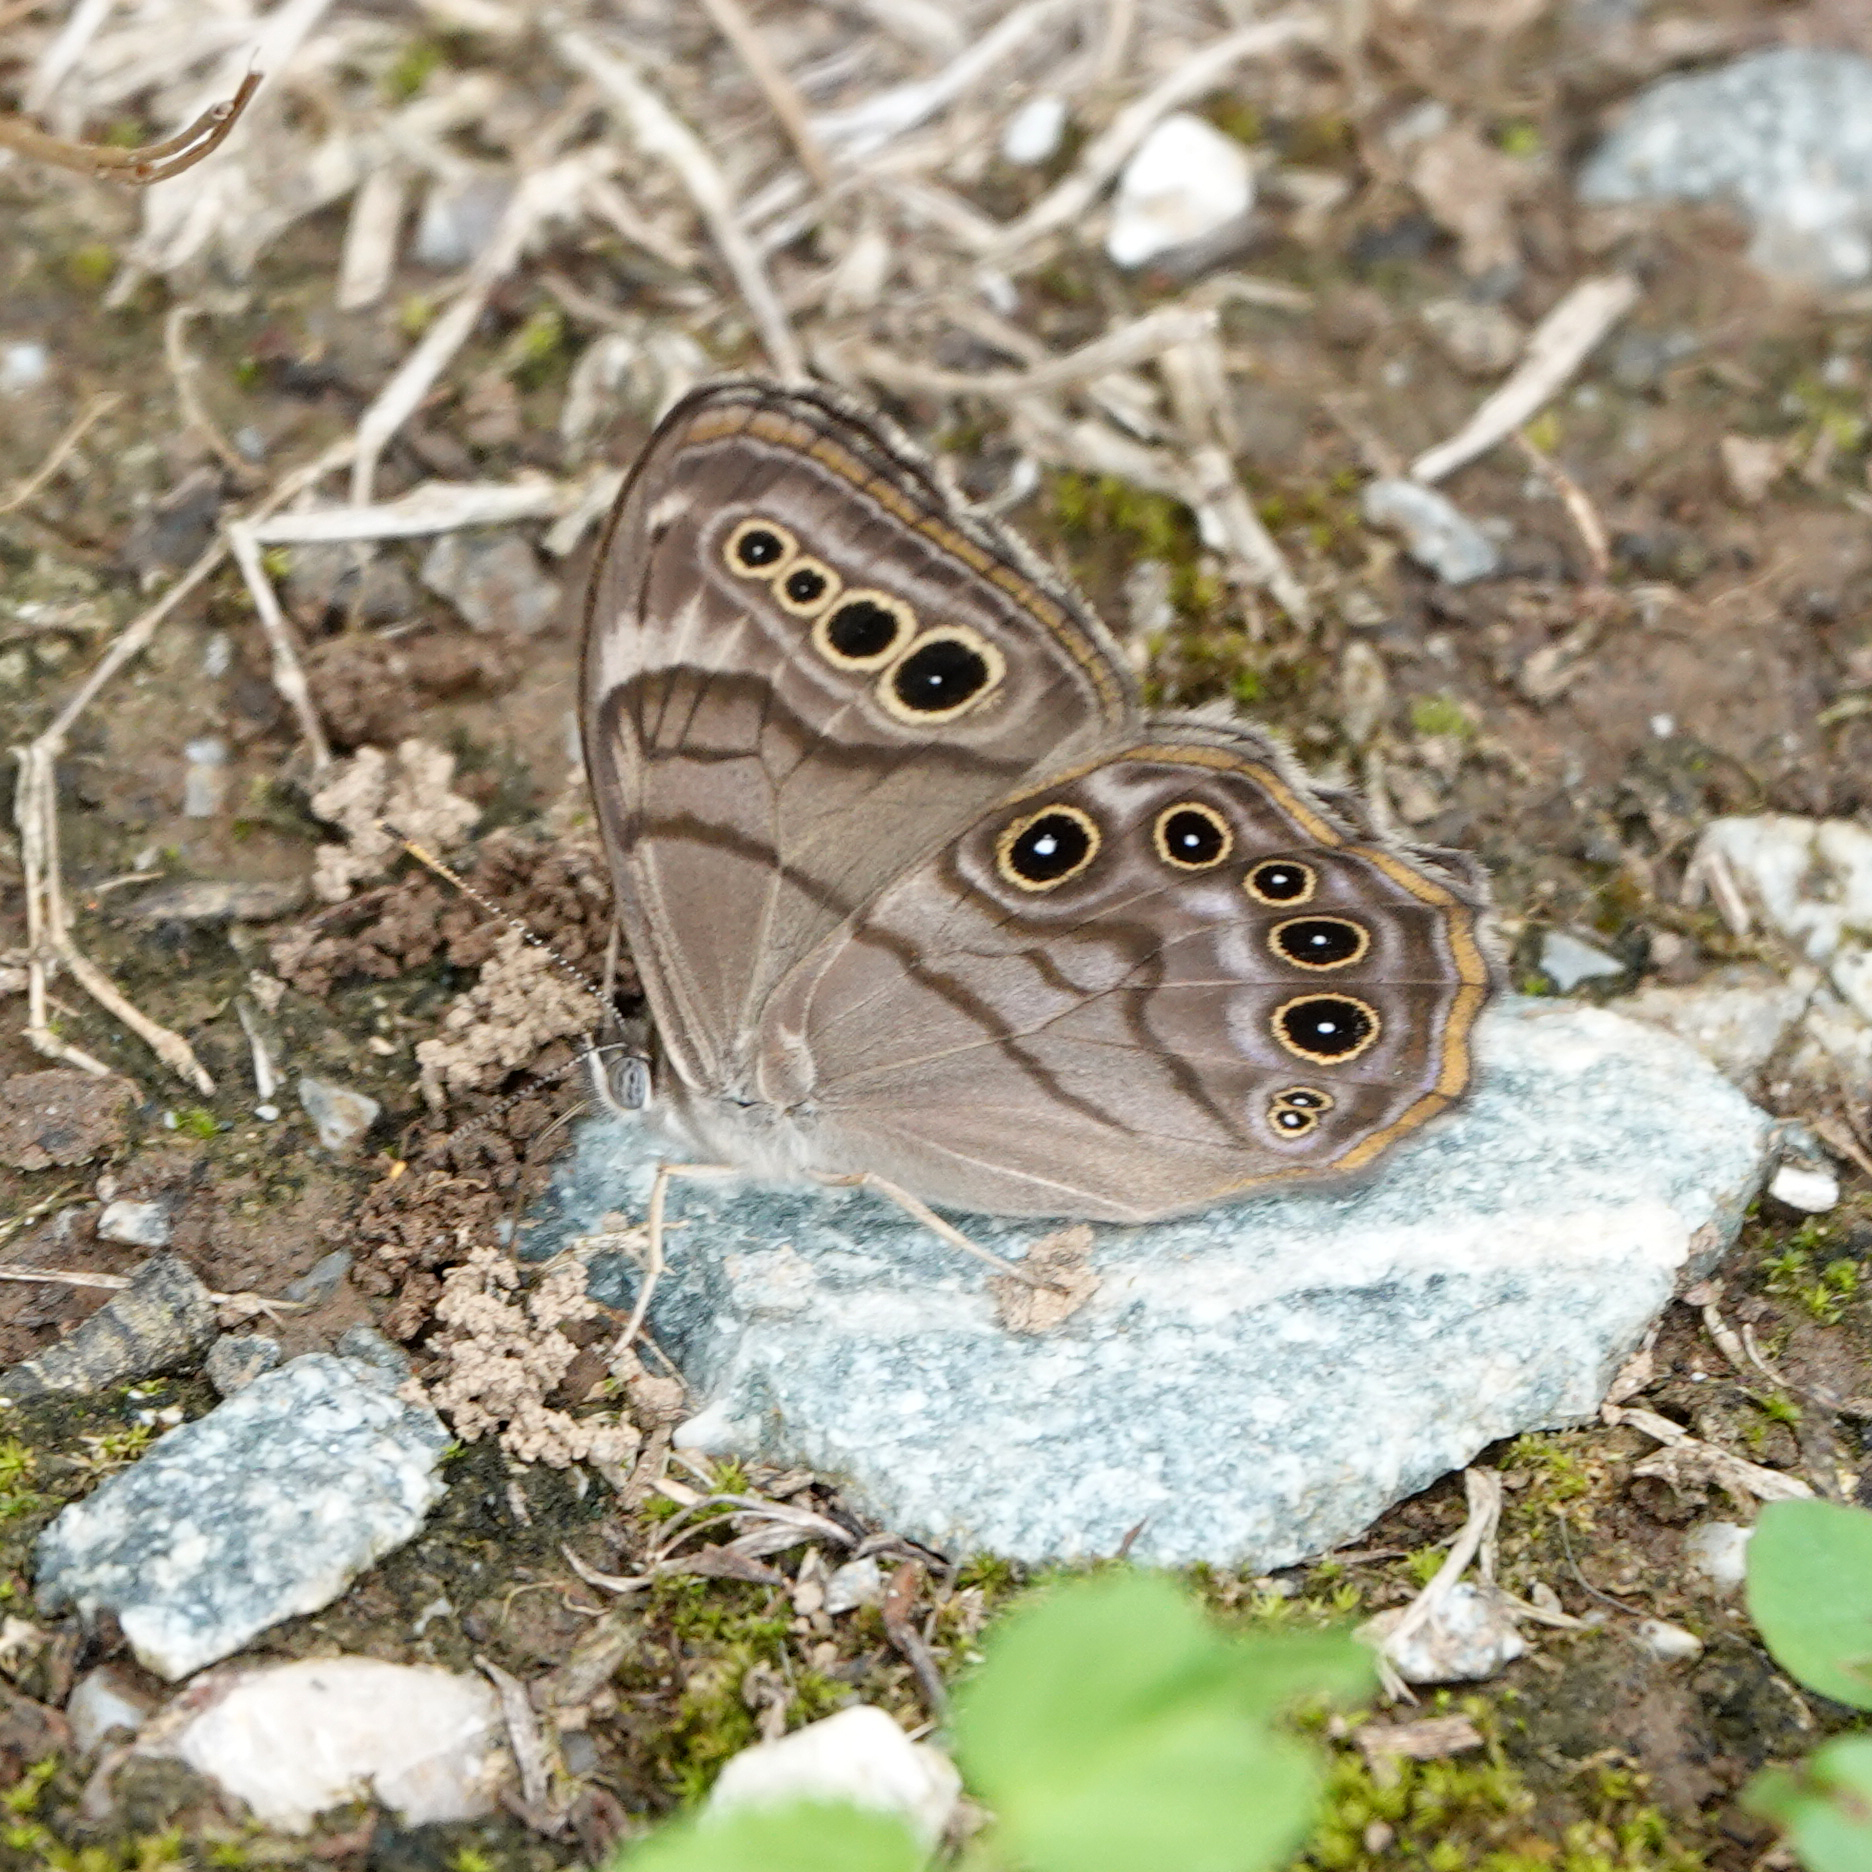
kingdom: Animalia
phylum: Arthropoda
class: Insecta
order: Lepidoptera
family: Nymphalidae
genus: Lethe
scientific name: Lethe anthedon
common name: Northern pearly-eye
